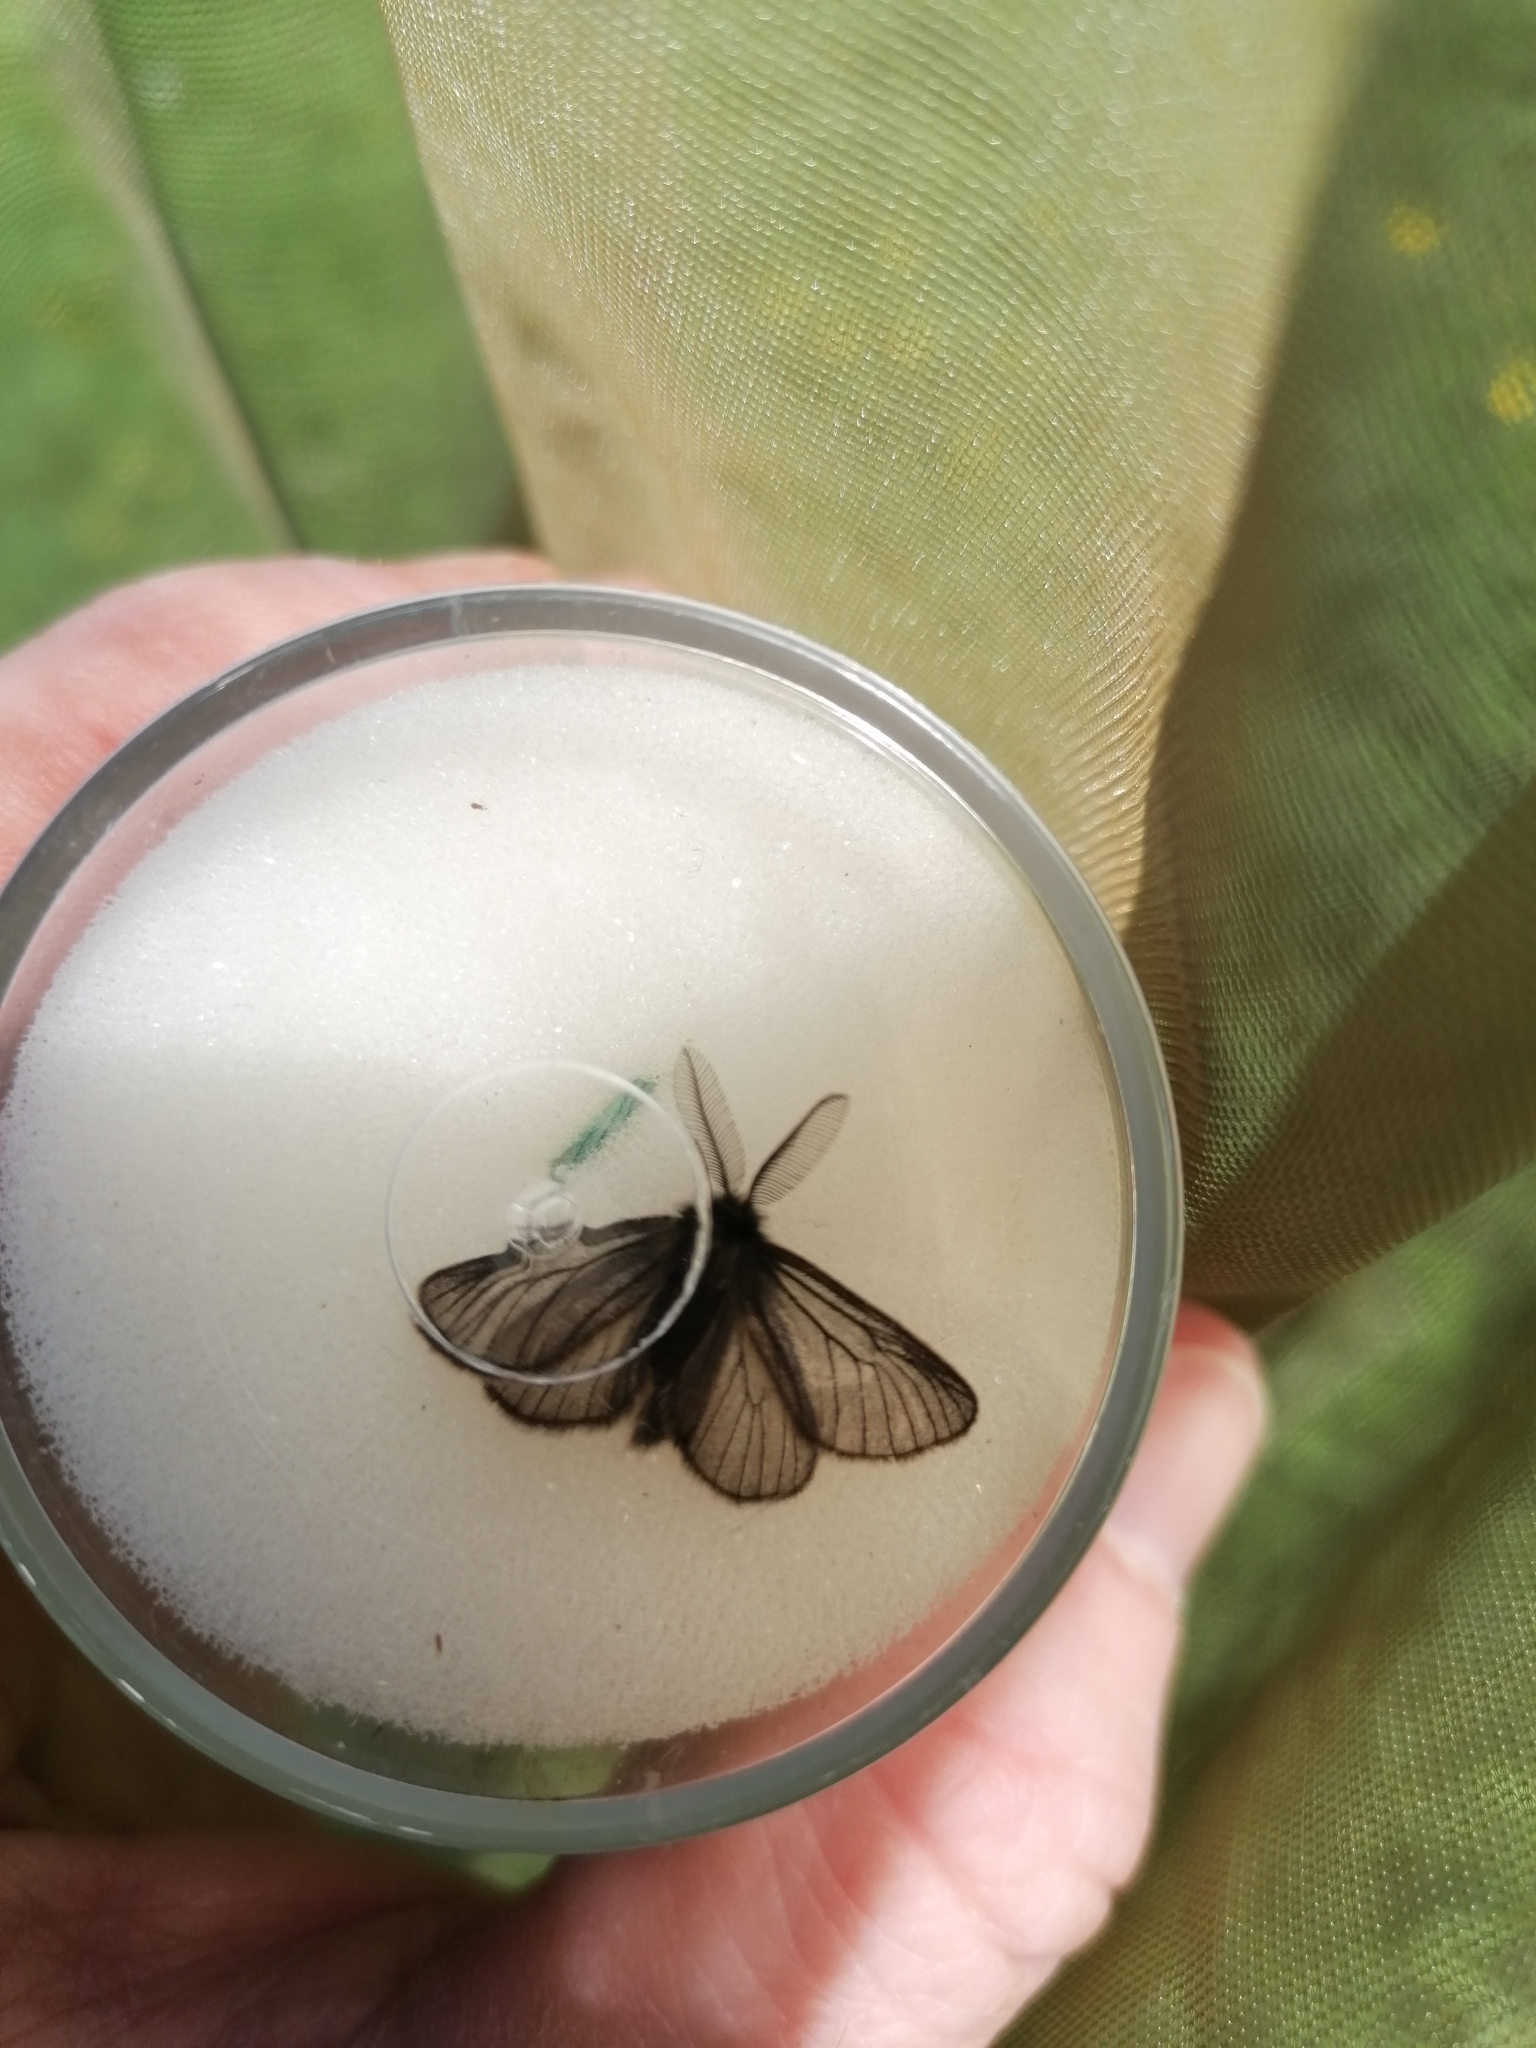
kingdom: Animalia
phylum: Arthropoda
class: Insecta
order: Lepidoptera
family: Erebidae
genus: Penthophera
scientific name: Penthophera morio
